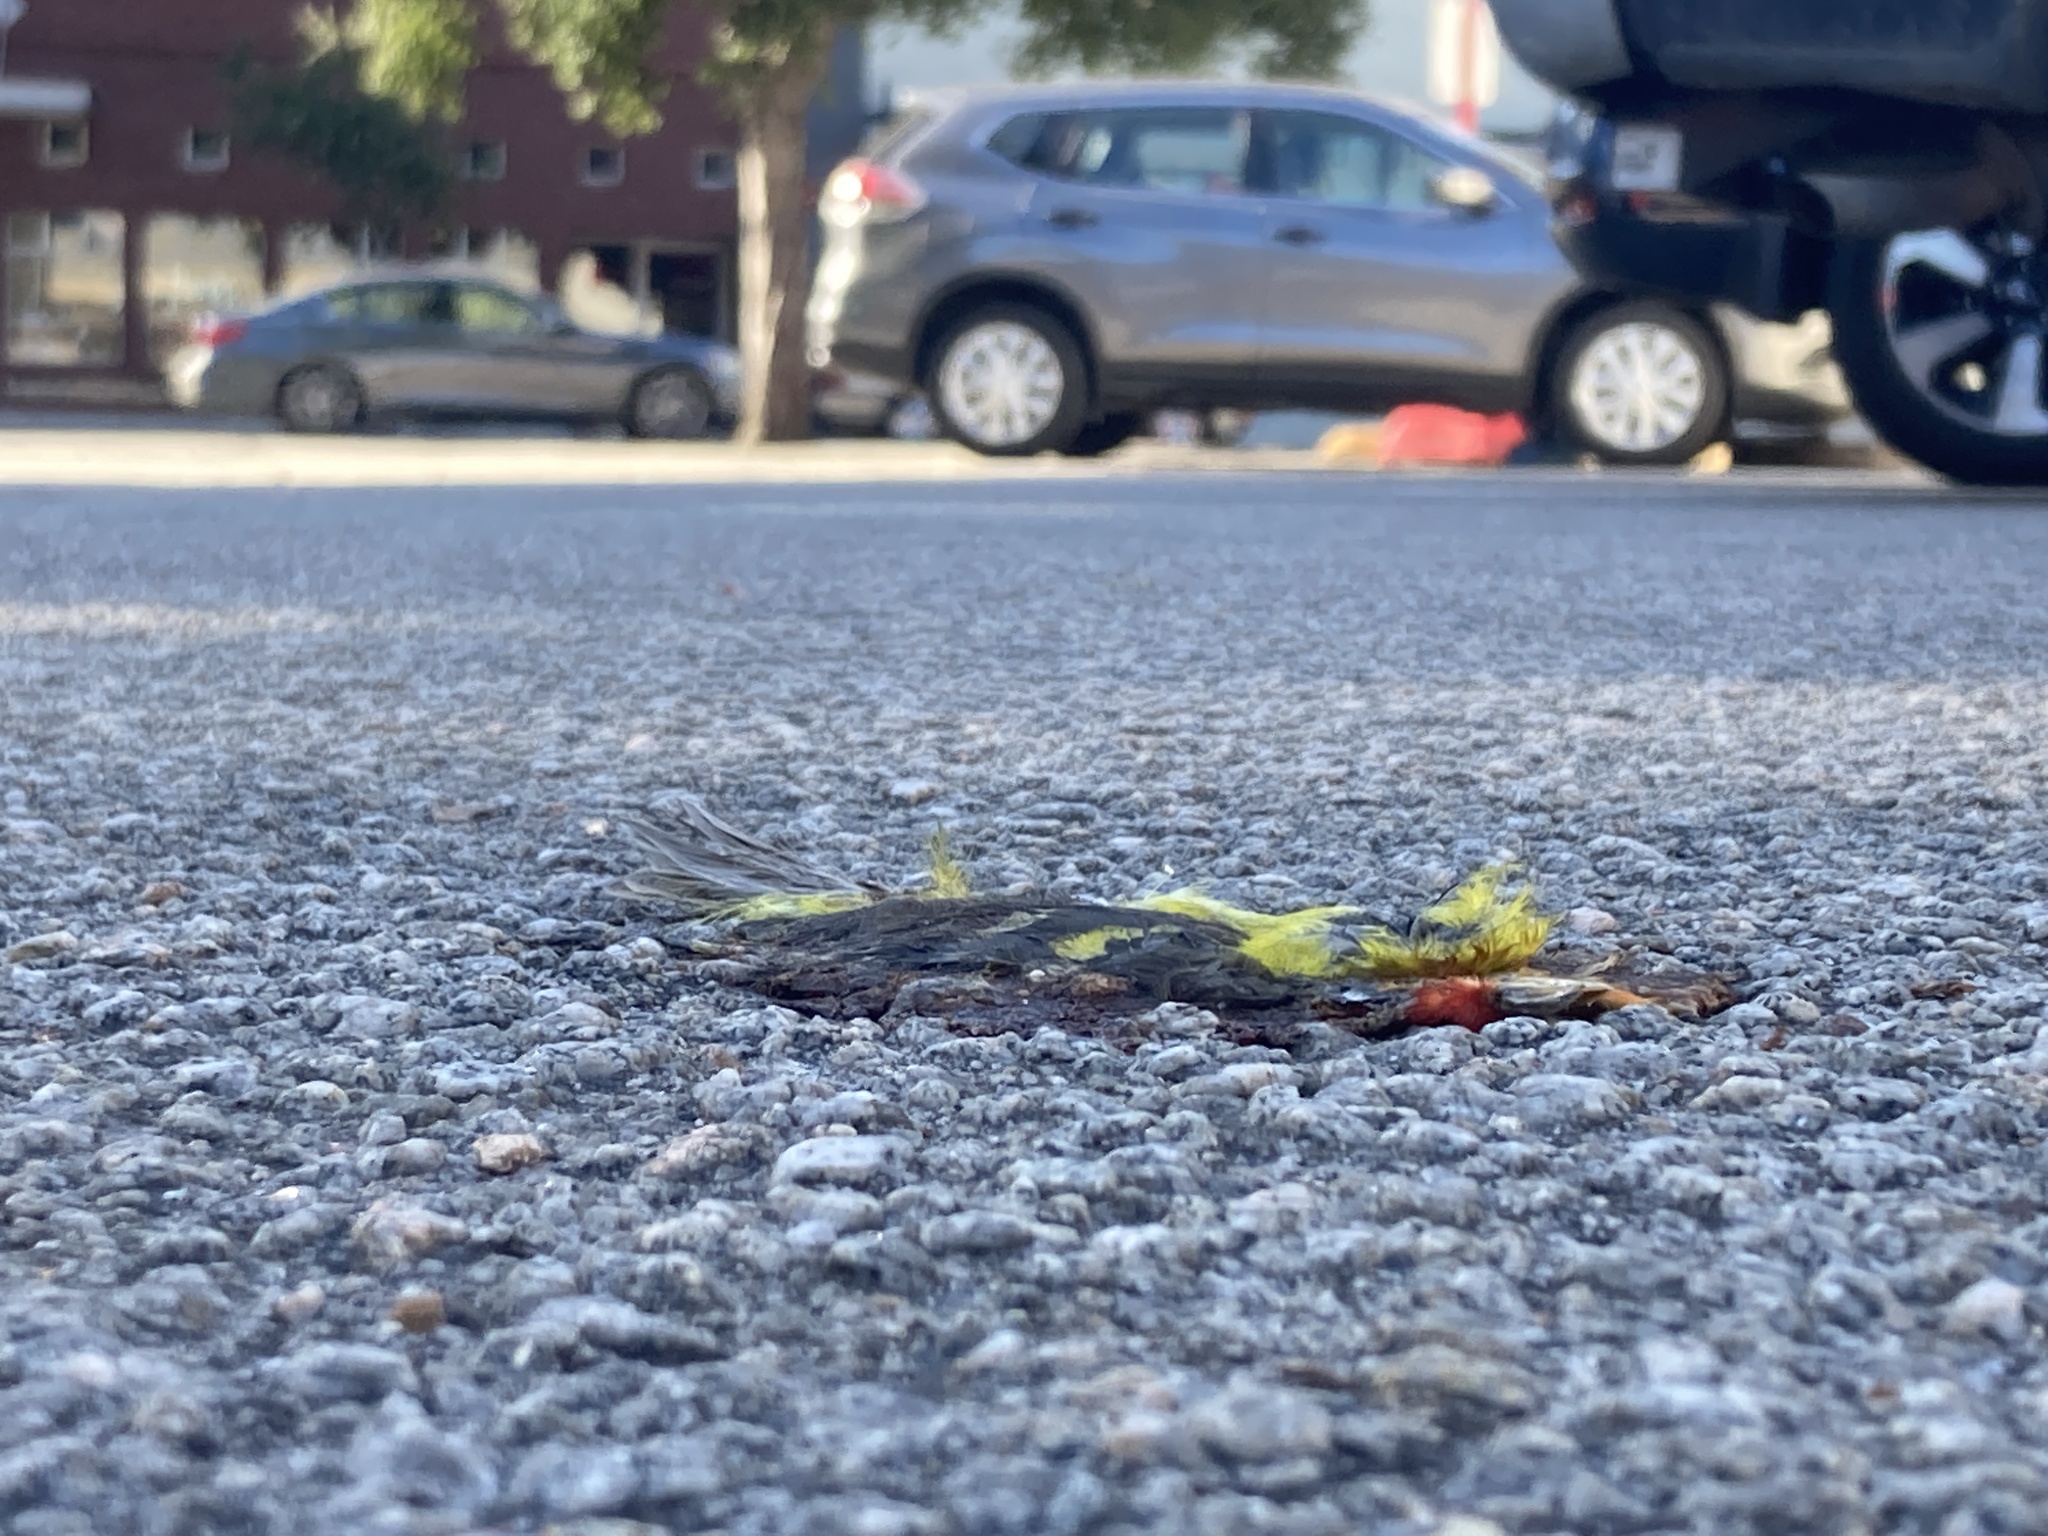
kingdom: Animalia
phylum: Chordata
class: Aves
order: Passeriformes
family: Cardinalidae
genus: Piranga
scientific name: Piranga ludoviciana
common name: Western tanager
